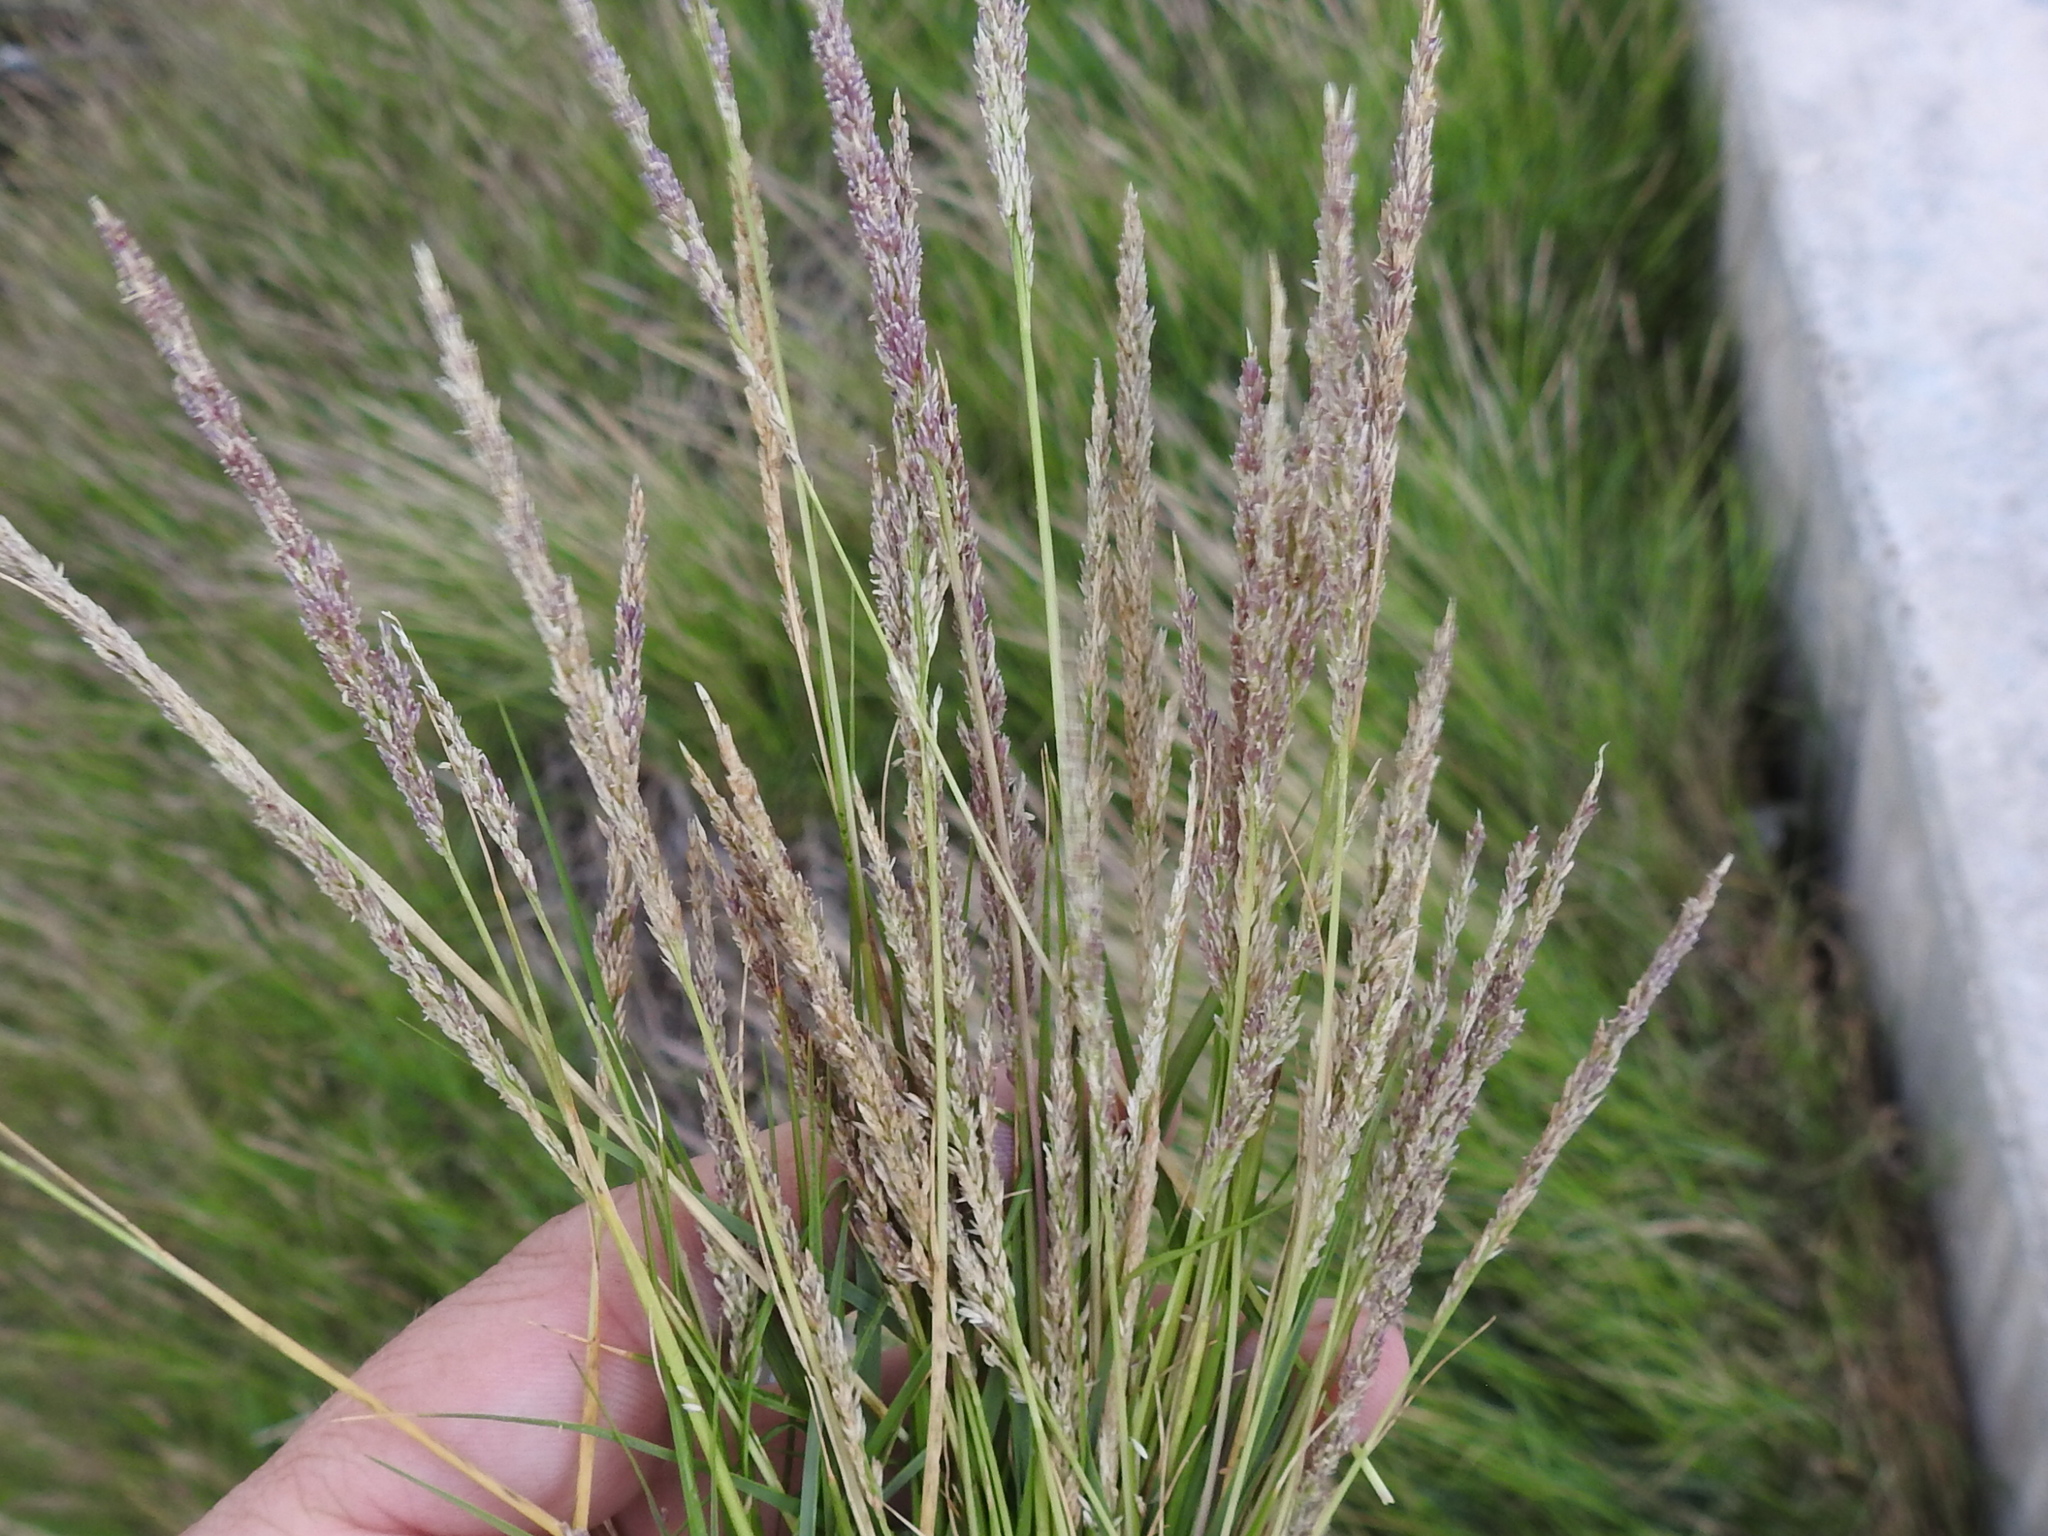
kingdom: Plantae
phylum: Tracheophyta
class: Liliopsida
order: Poales
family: Poaceae
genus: Sporobolus
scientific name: Sporobolus virginicus
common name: Beach dropseed
